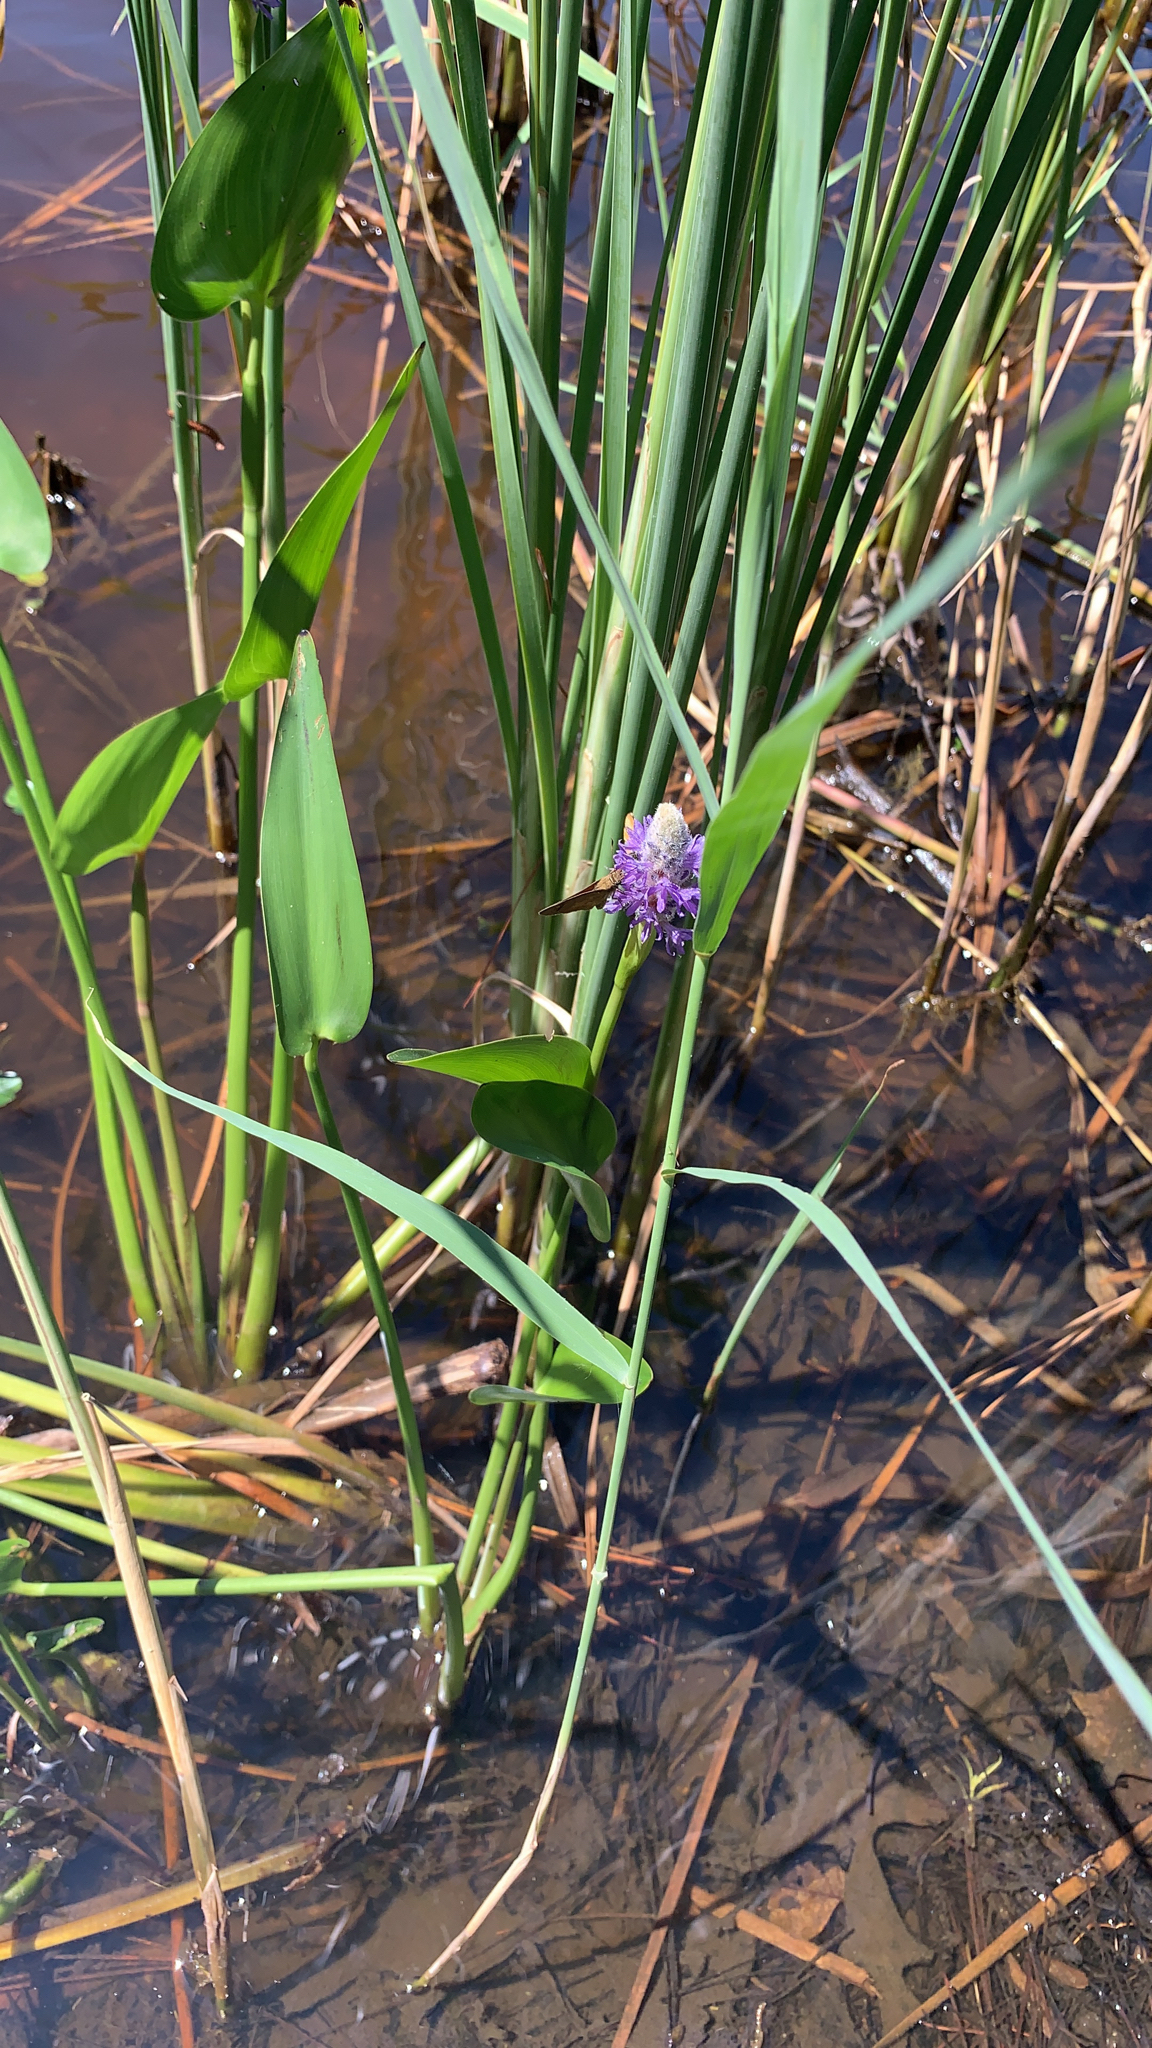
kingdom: Plantae
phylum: Tracheophyta
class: Liliopsida
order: Commelinales
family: Pontederiaceae
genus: Pontederia
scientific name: Pontederia cordata
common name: Pickerelweed
